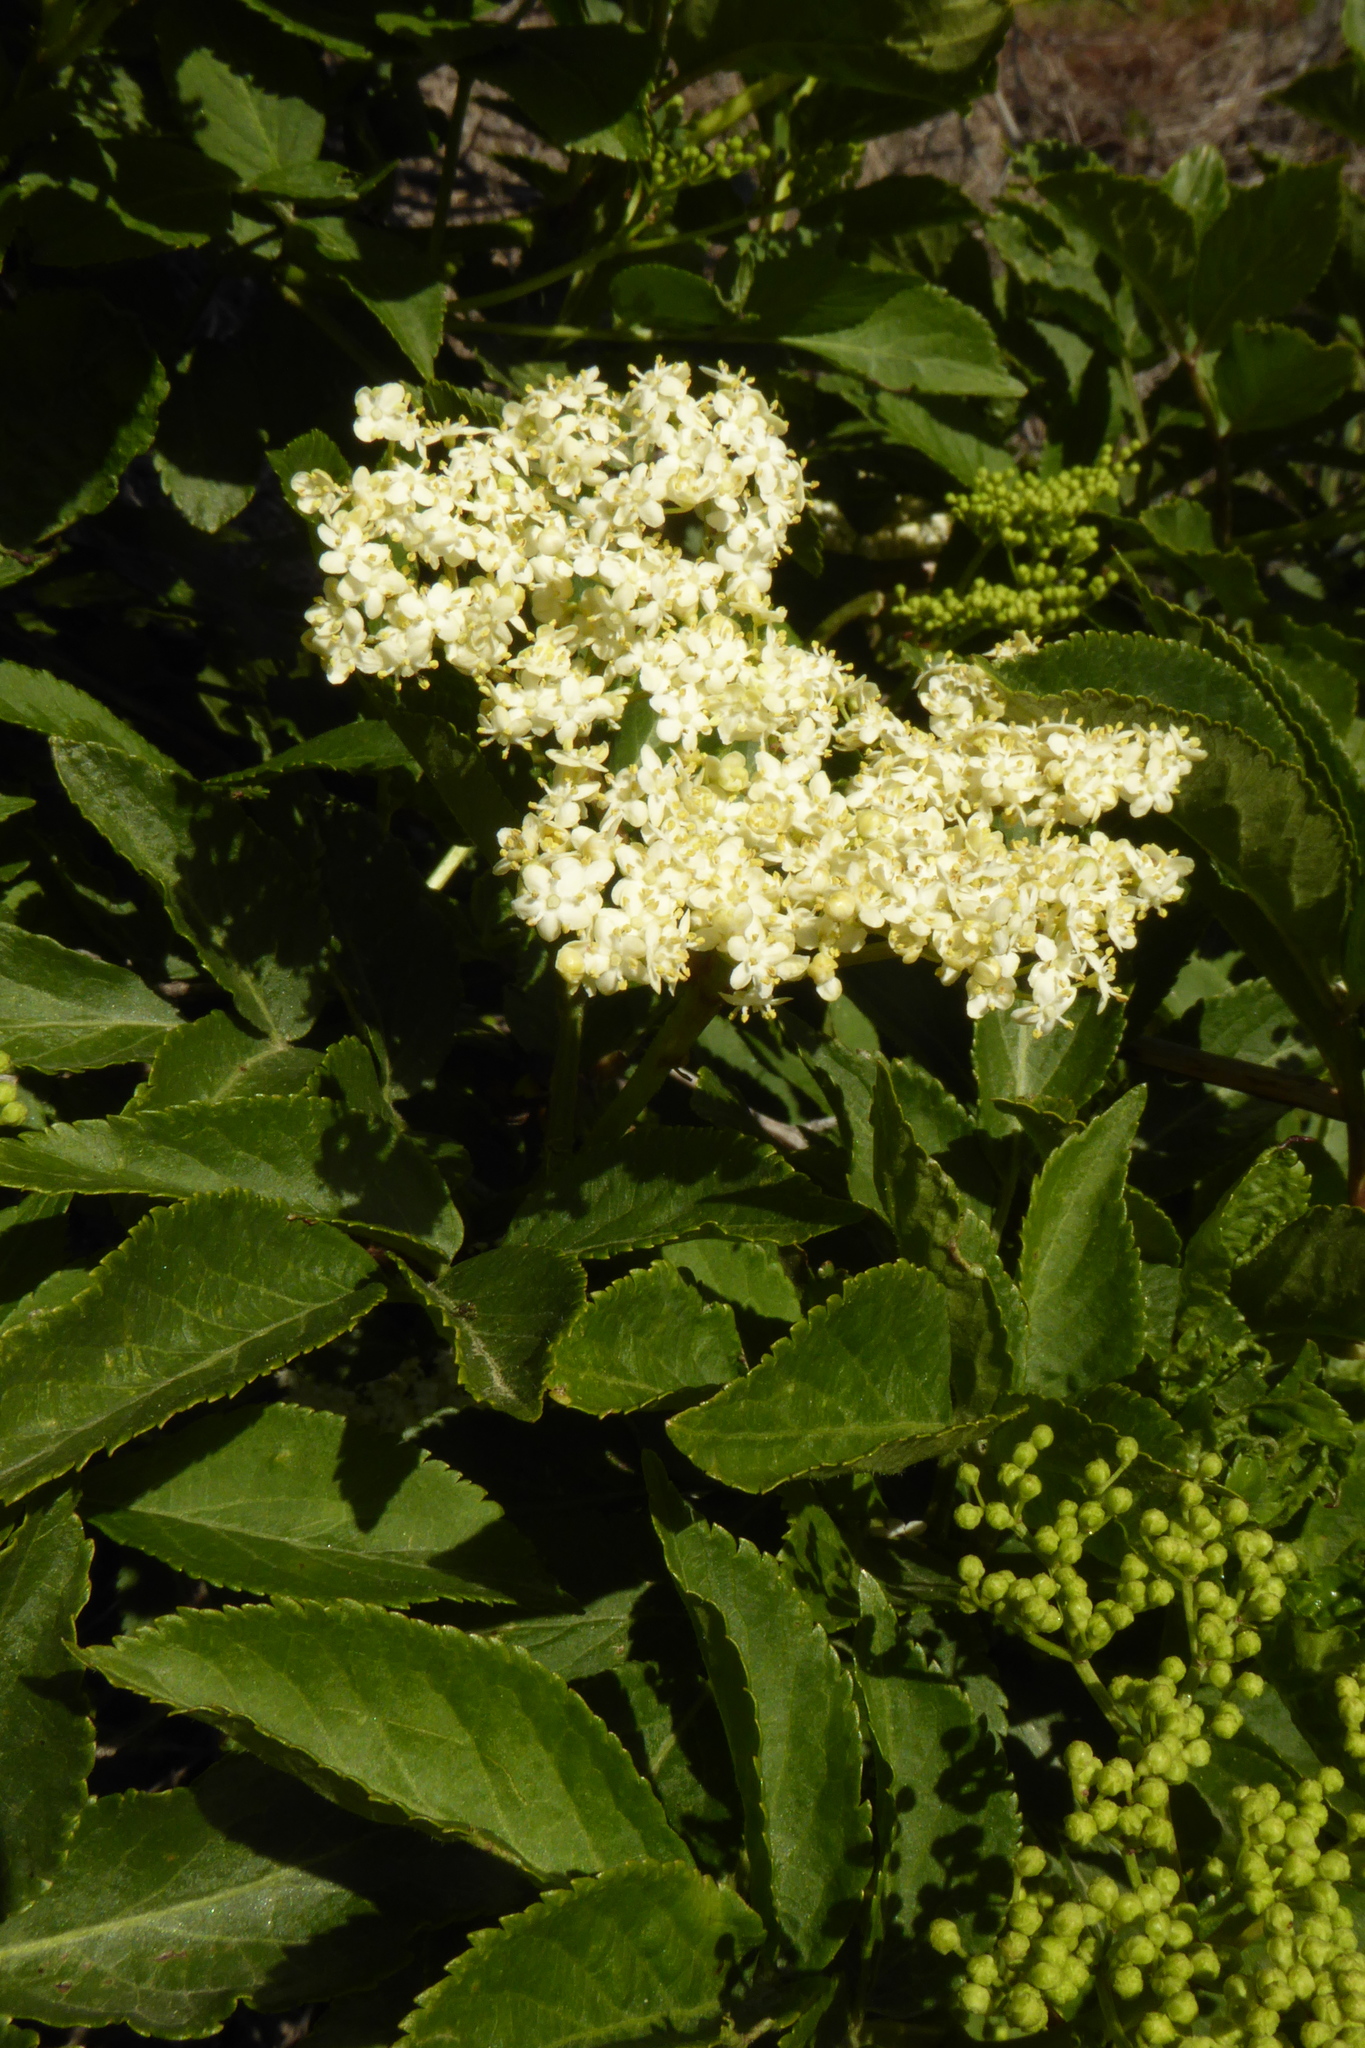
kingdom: Plantae
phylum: Tracheophyta
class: Magnoliopsida
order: Dipsacales
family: Viburnaceae
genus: Sambucus
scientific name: Sambucus nigra
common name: Elder
